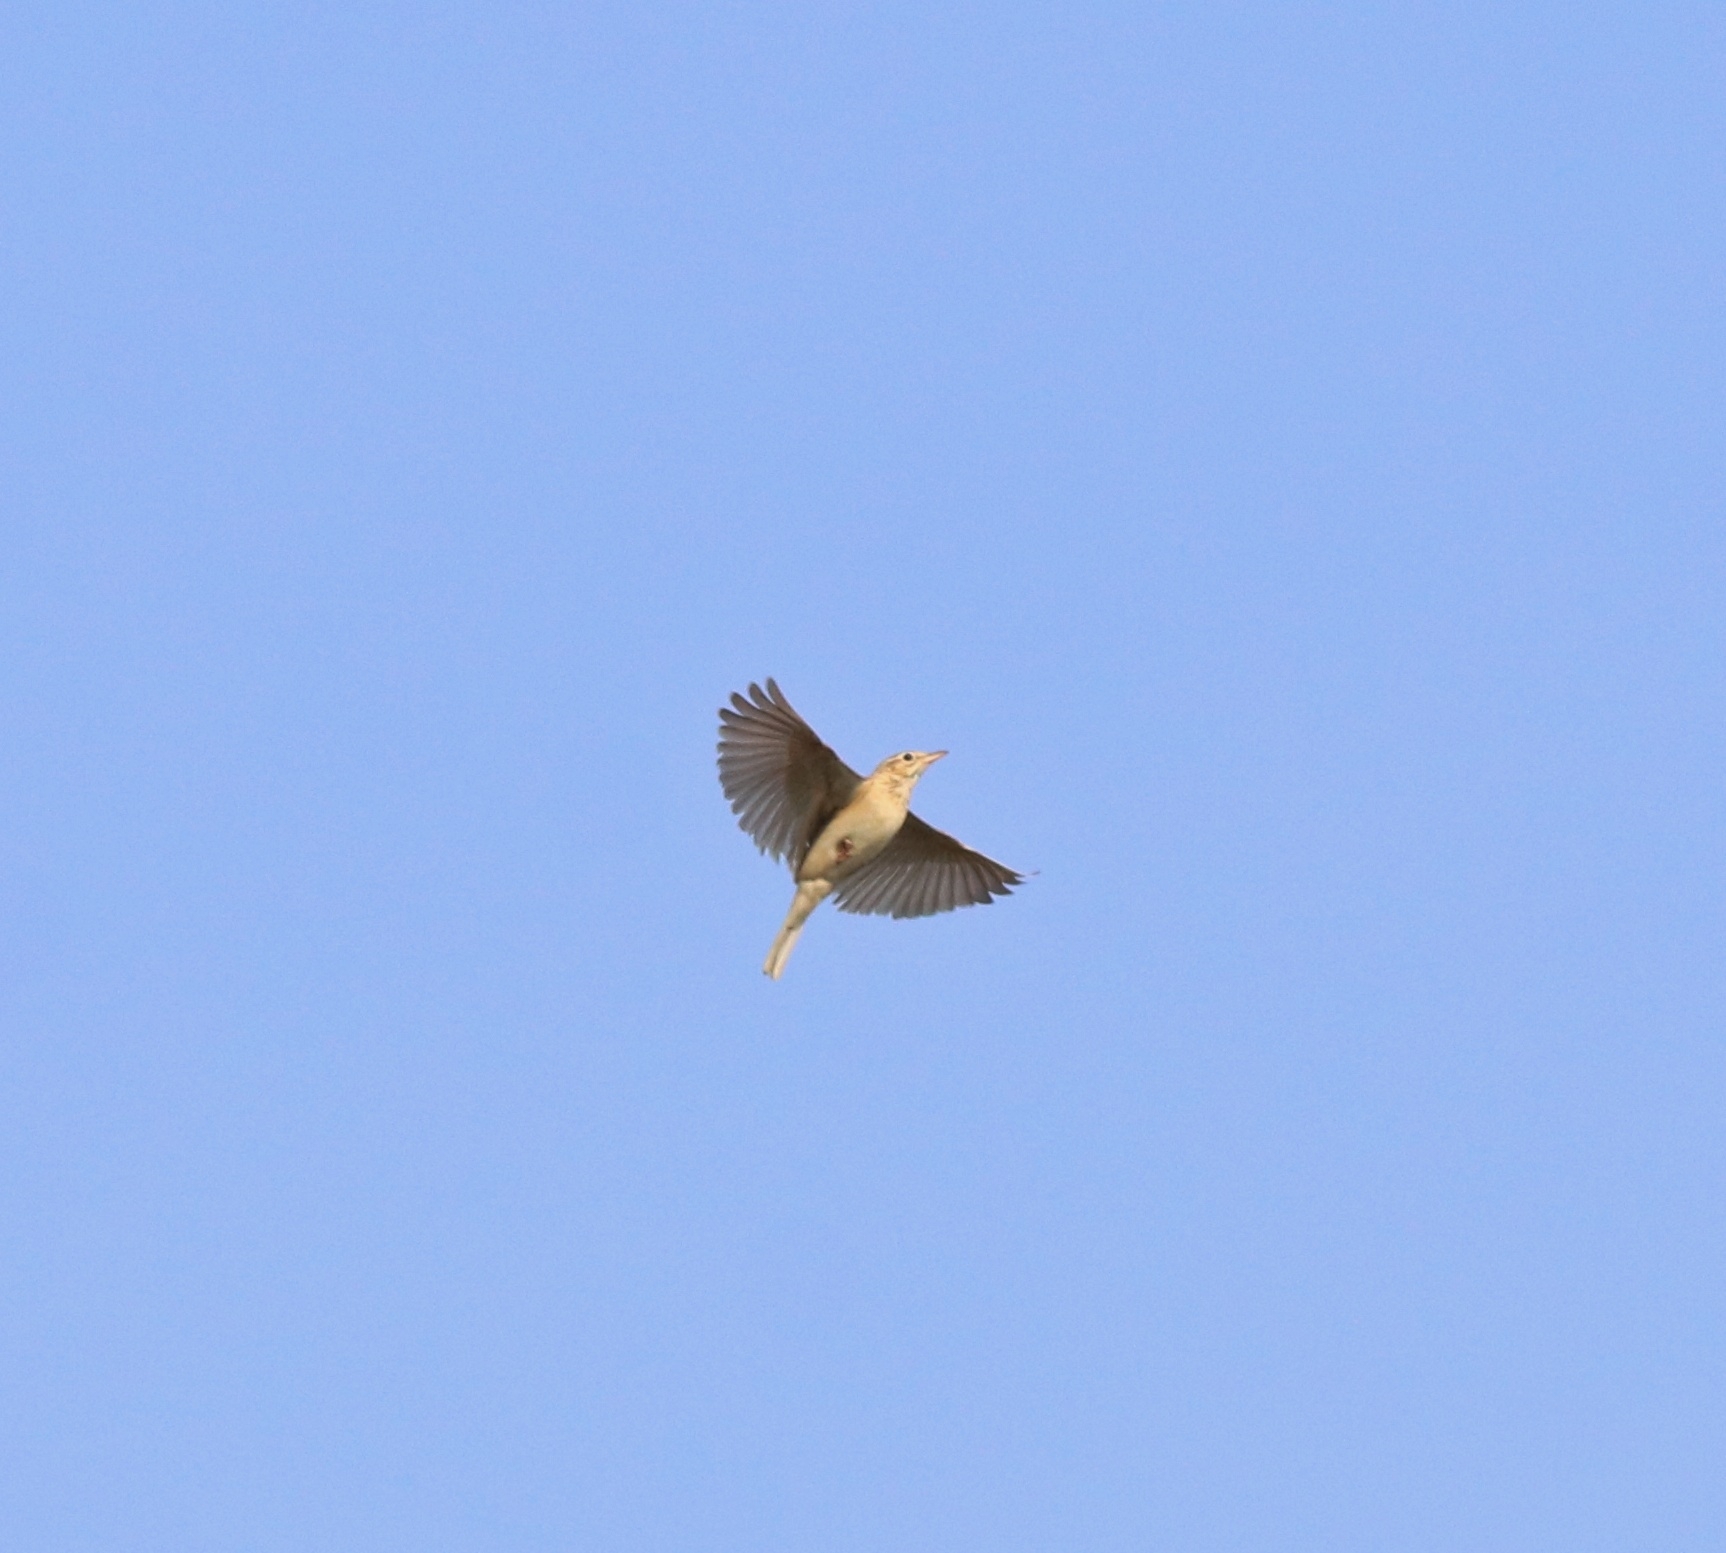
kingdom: Animalia
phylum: Chordata
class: Aves
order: Passeriformes
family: Motacillidae
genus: Anthus
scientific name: Anthus rufulus
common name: Paddyfield pipit
